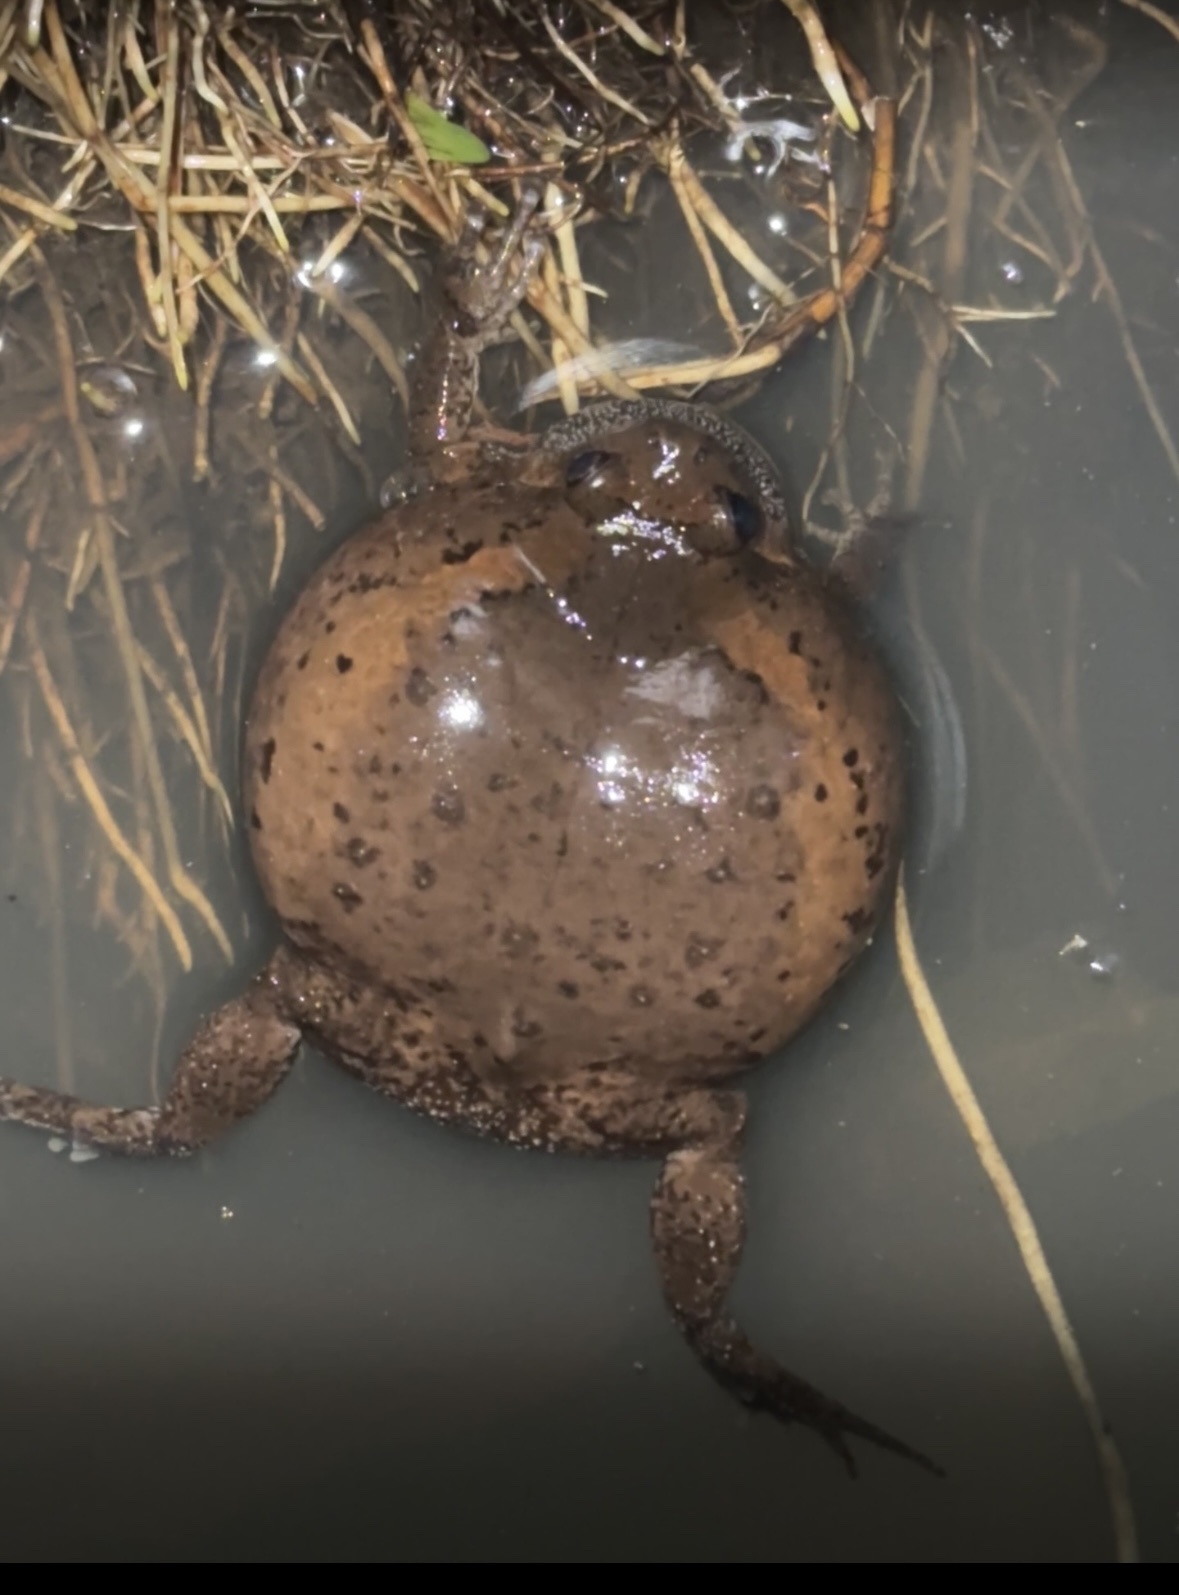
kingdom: Animalia
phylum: Chordata
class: Amphibia
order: Anura
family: Microhylidae
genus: Kaloula
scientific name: Kaloula pulchra
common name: Common,banded bullfrog
